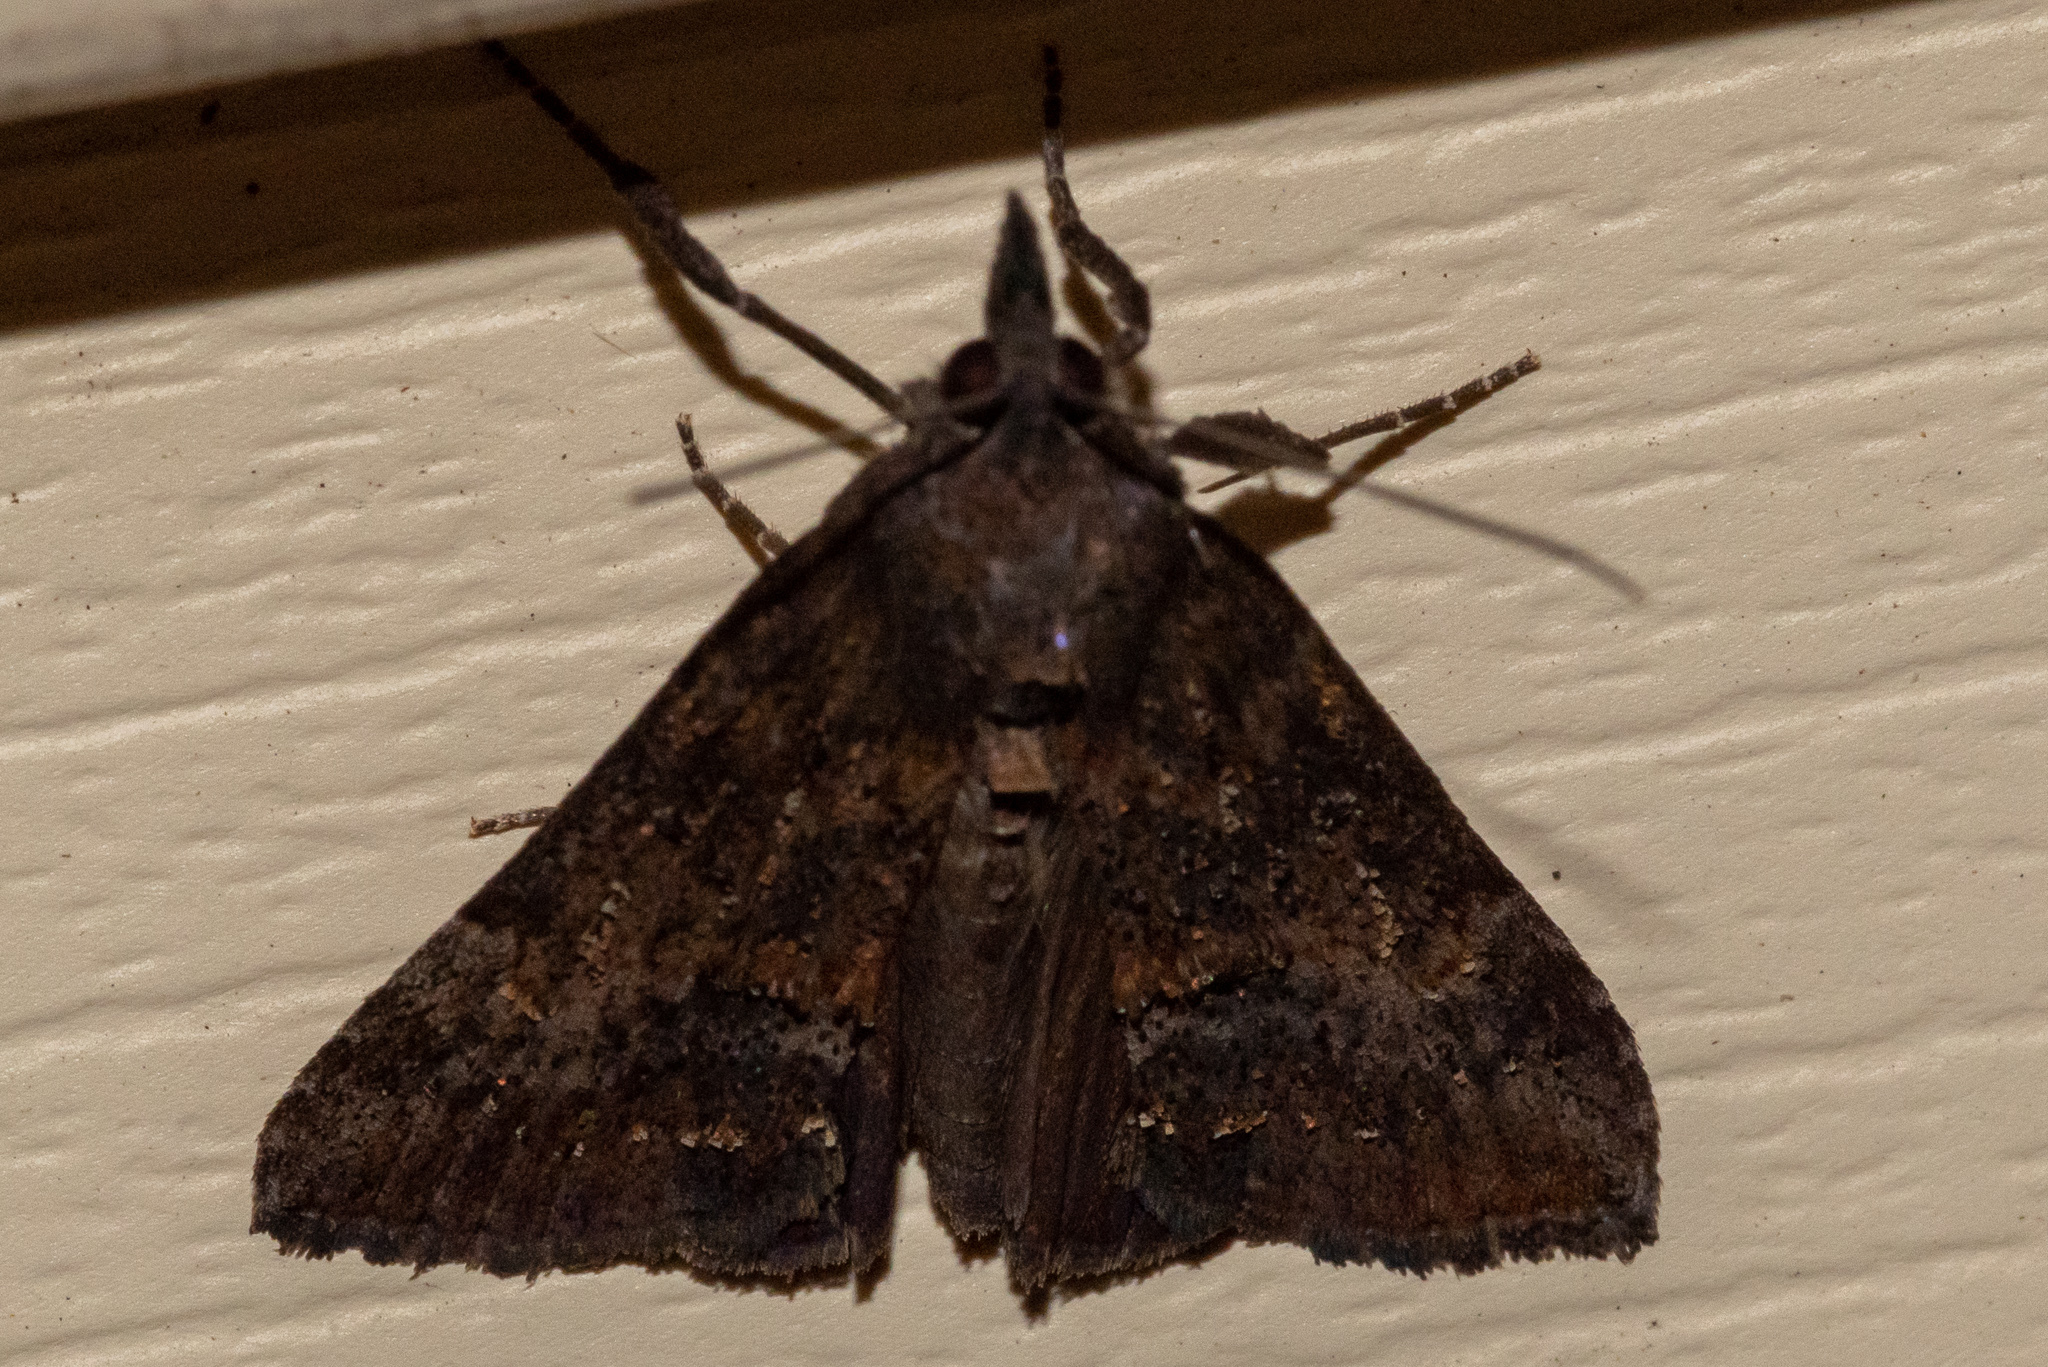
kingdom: Animalia
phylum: Arthropoda
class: Insecta
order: Lepidoptera
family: Erebidae
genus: Hypena
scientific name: Hypena scabra
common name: Green cloverworm
